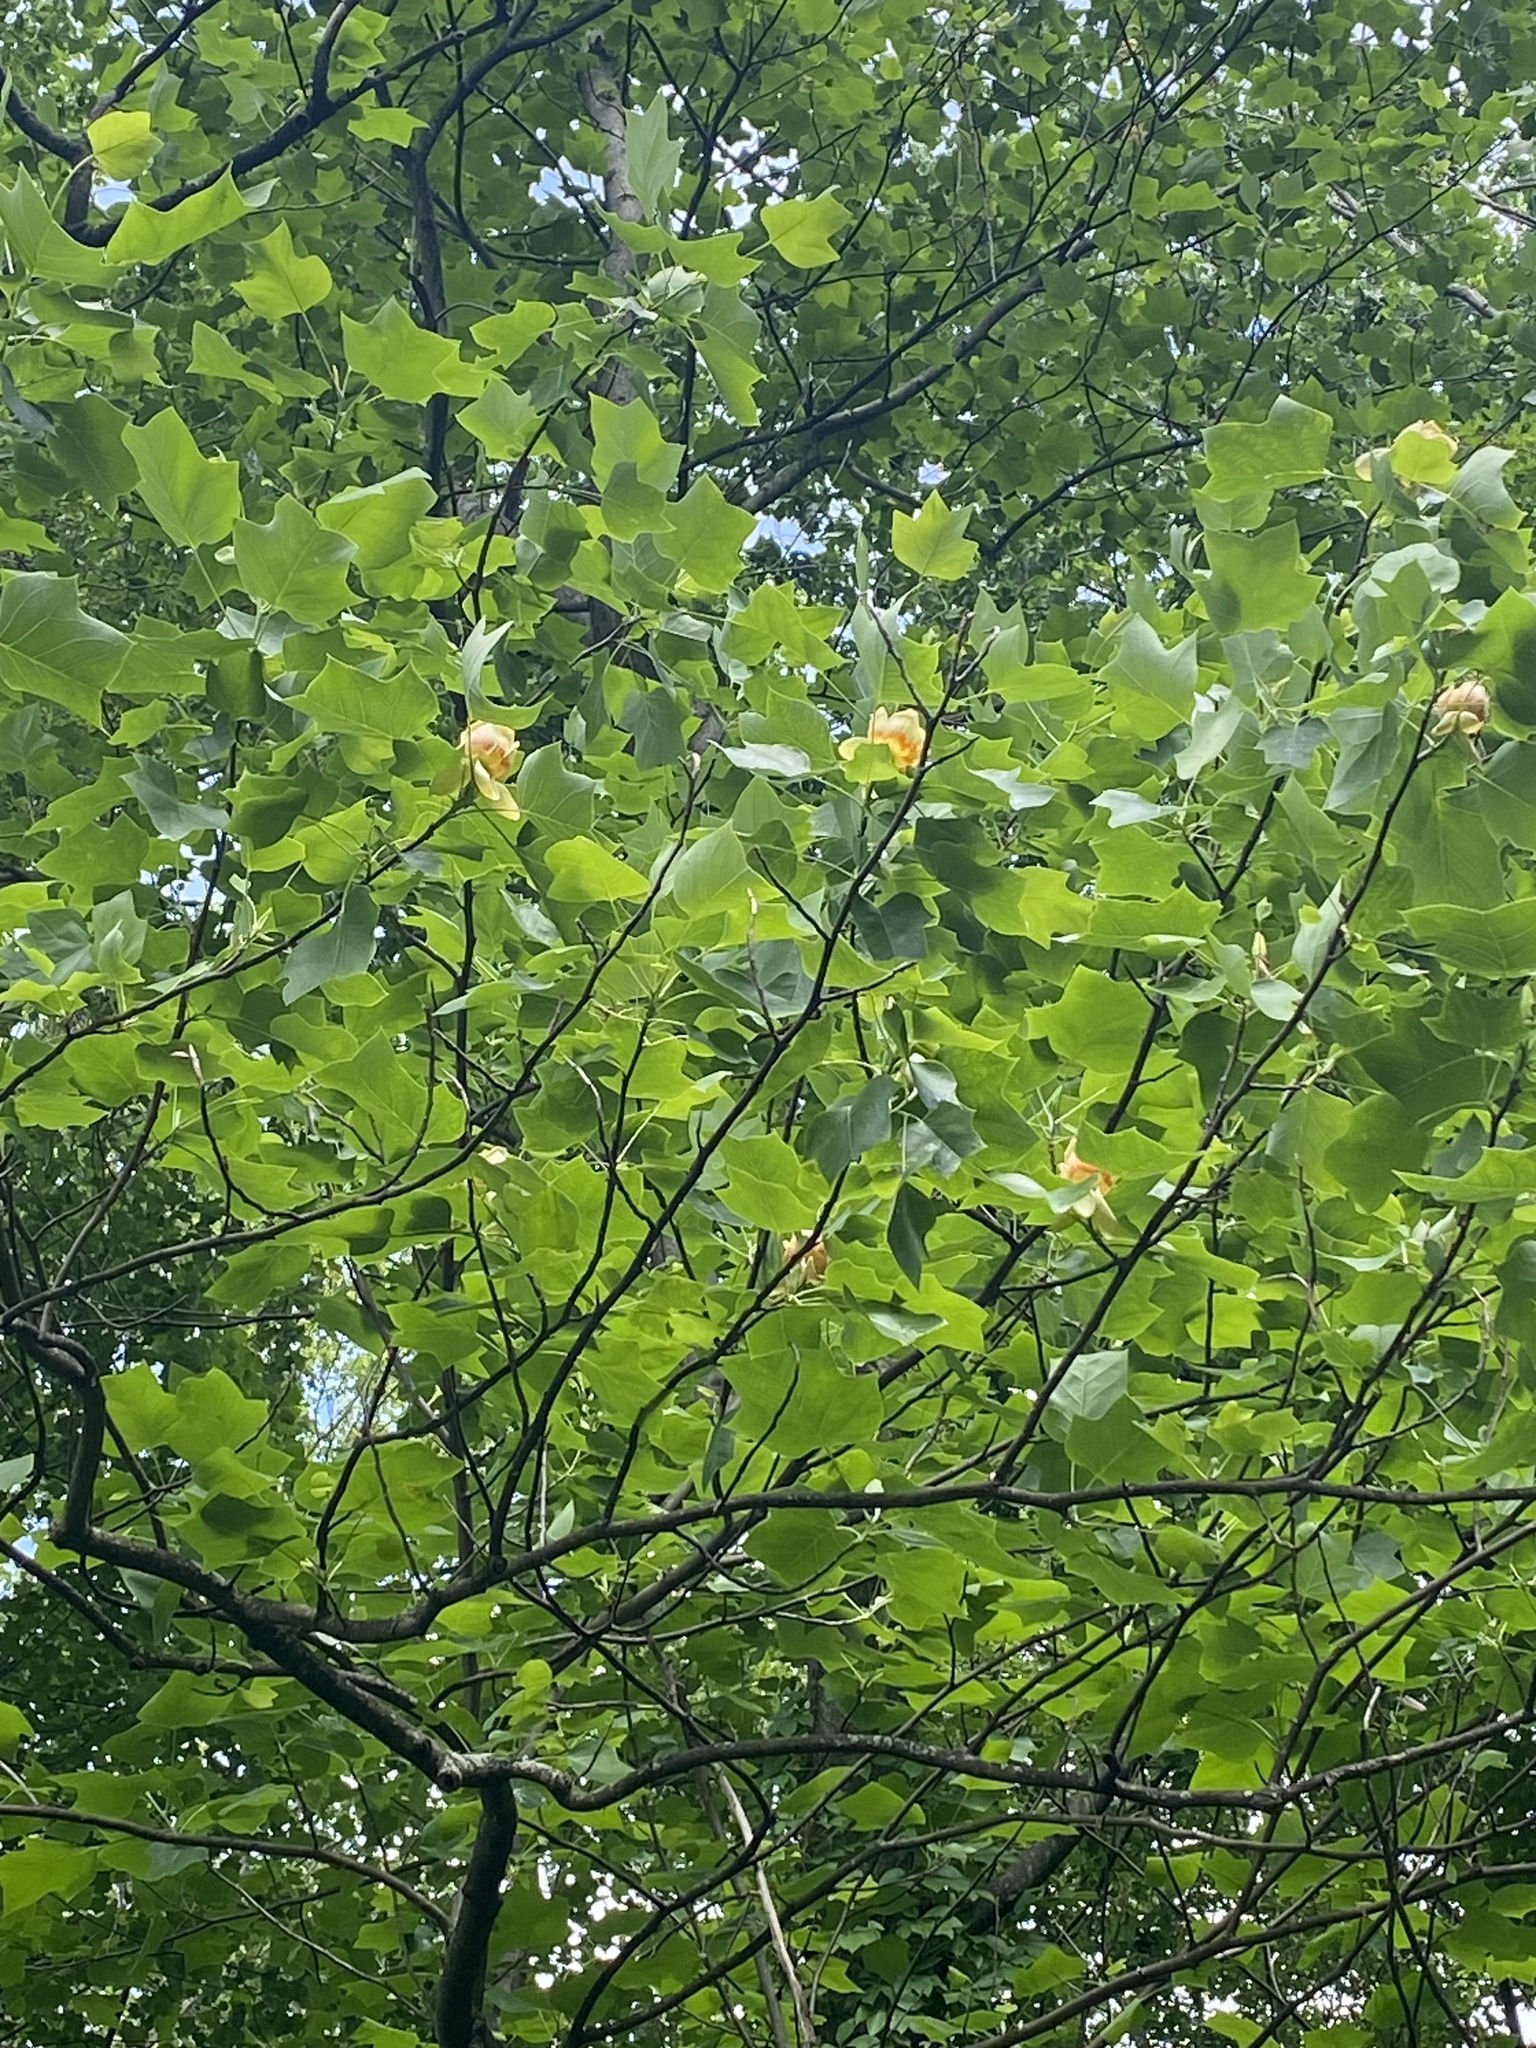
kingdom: Plantae
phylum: Tracheophyta
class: Magnoliopsida
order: Magnoliales
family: Magnoliaceae
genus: Liriodendron
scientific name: Liriodendron tulipifera
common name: Tulip tree
